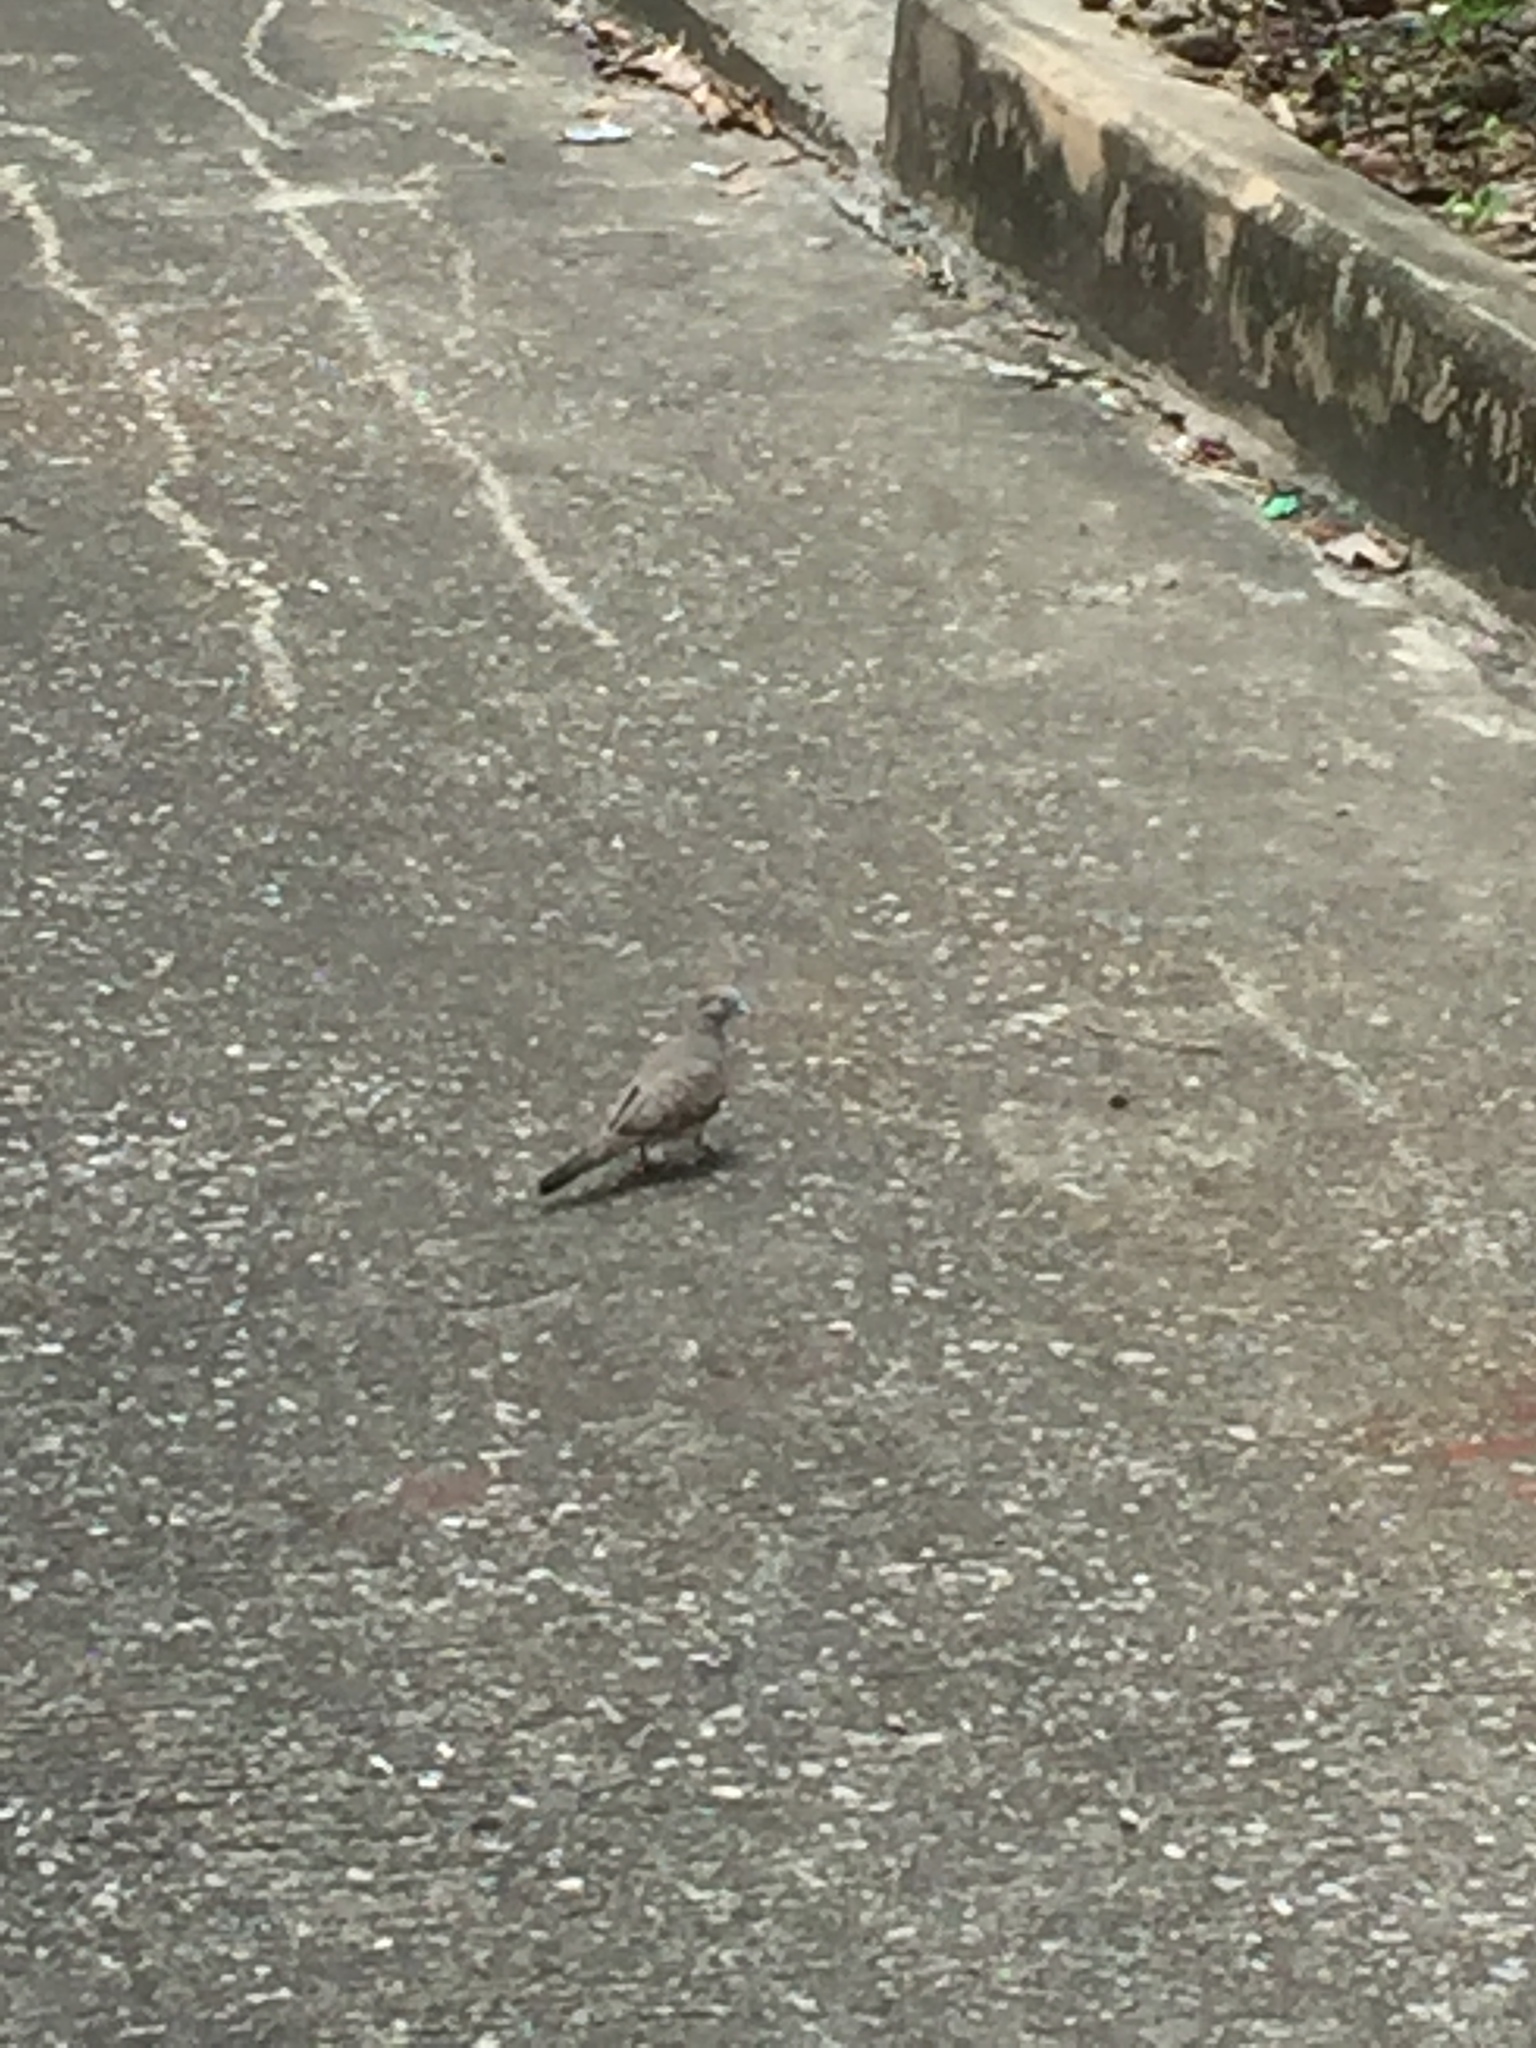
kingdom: Animalia
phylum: Chordata
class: Aves
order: Columbiformes
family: Columbidae
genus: Geopelia
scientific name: Geopelia striata
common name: Zebra dove
